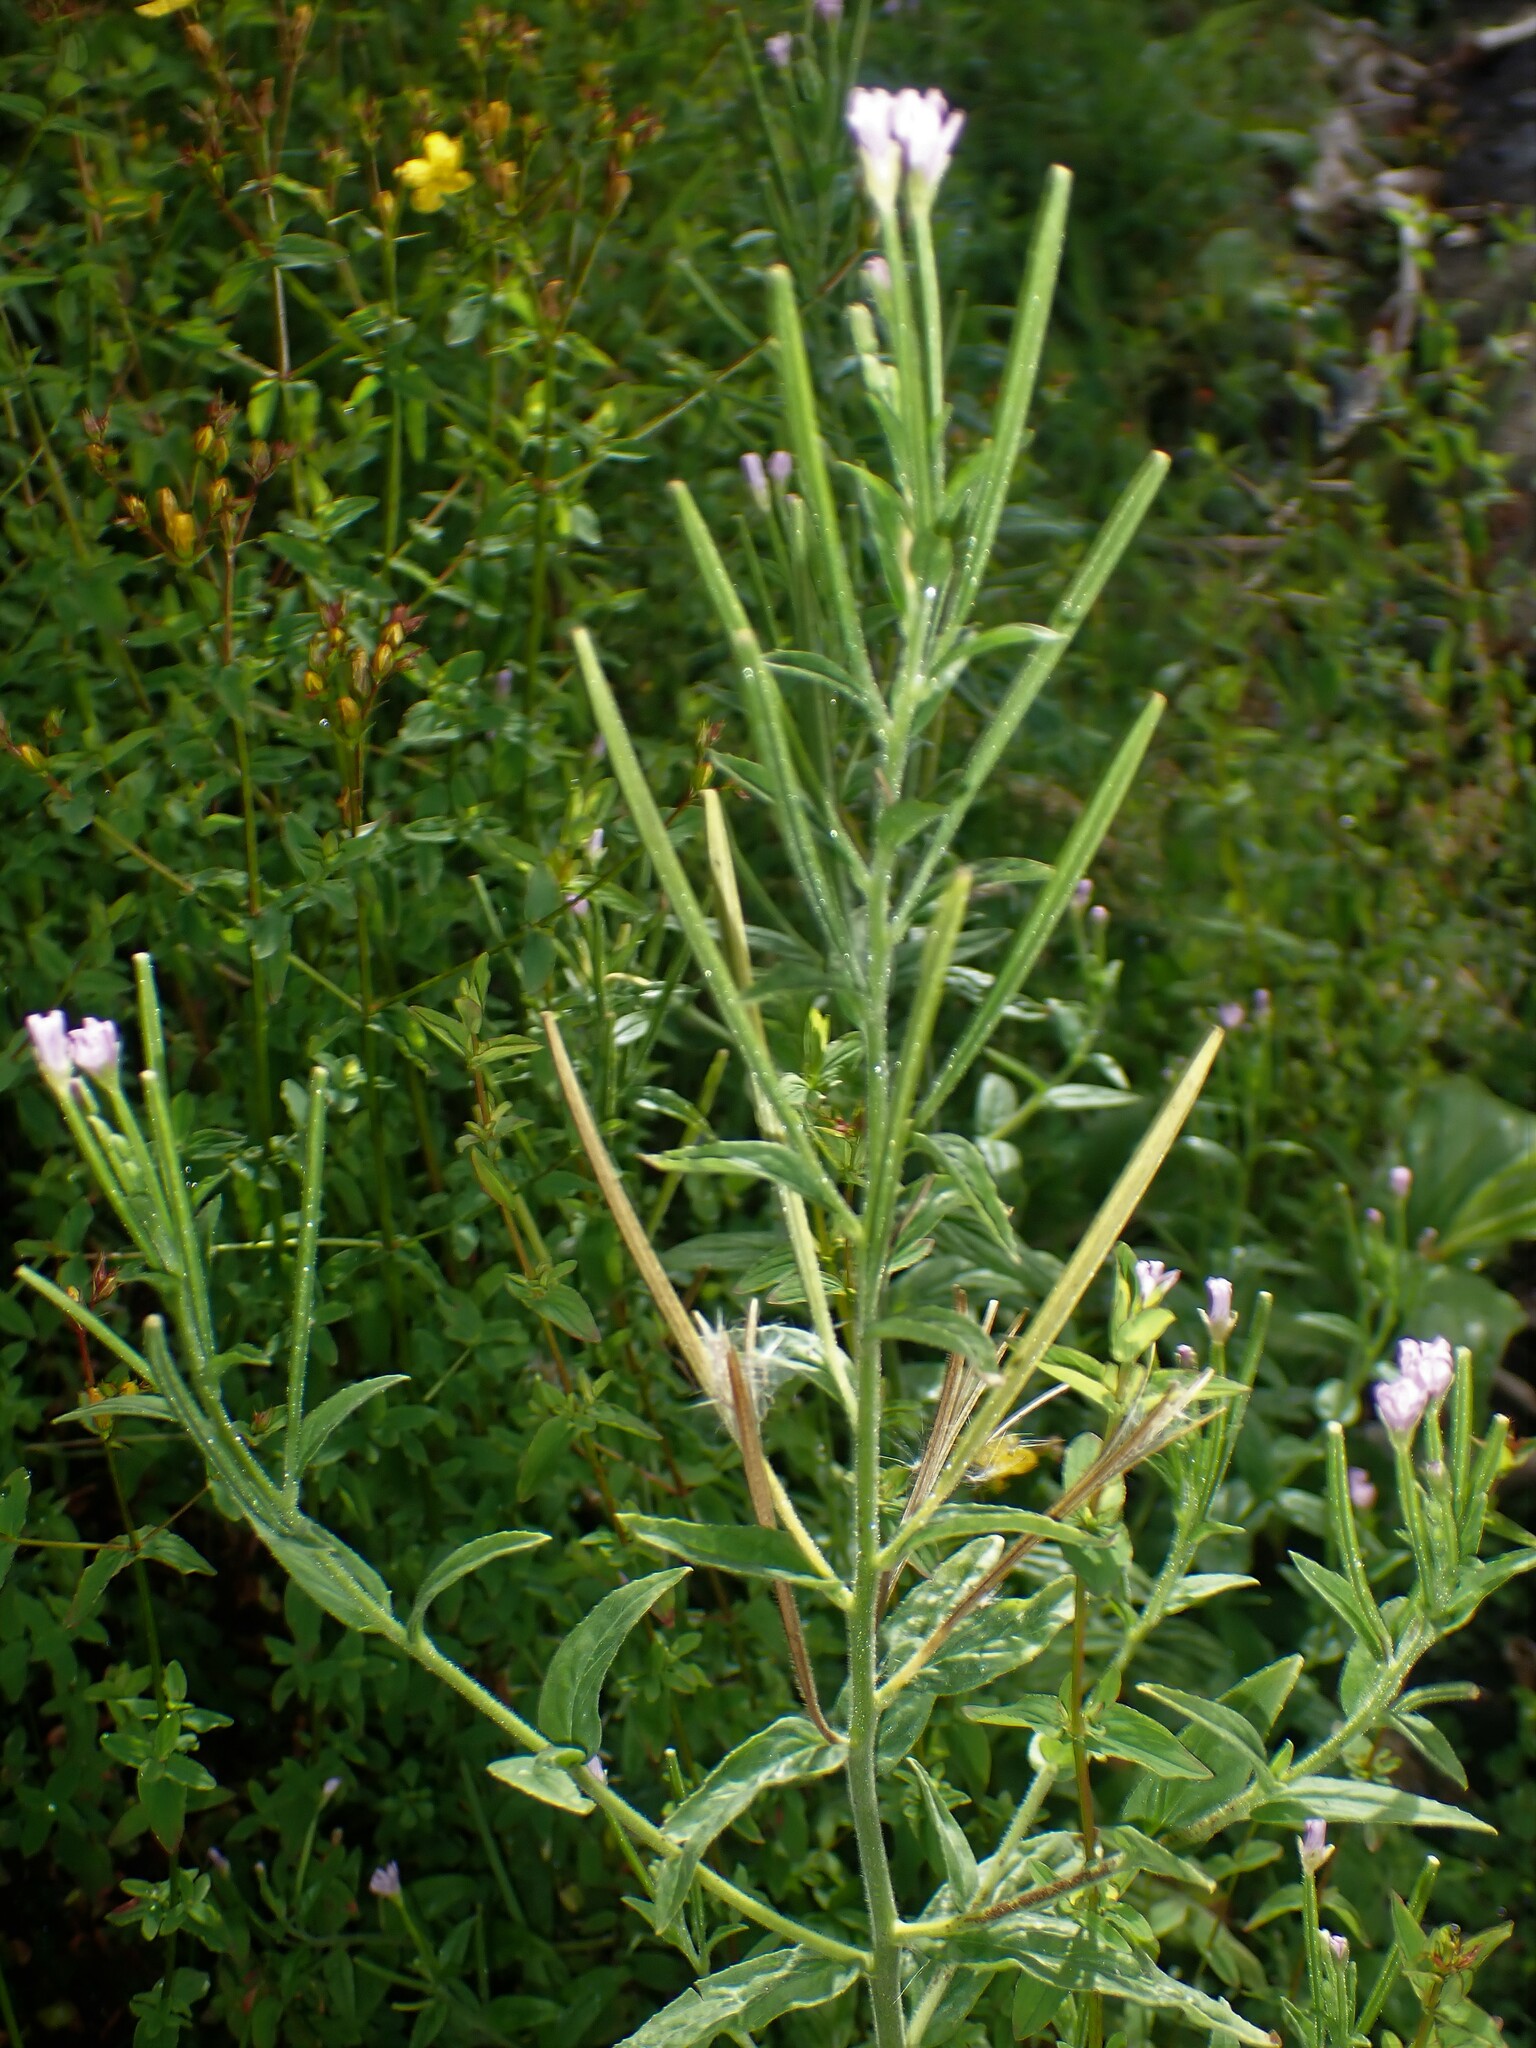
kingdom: Plantae
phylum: Tracheophyta
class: Magnoliopsida
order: Myrtales
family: Onagraceae
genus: Epilobium
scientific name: Epilobium parviflorum
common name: Hoary willowherb
